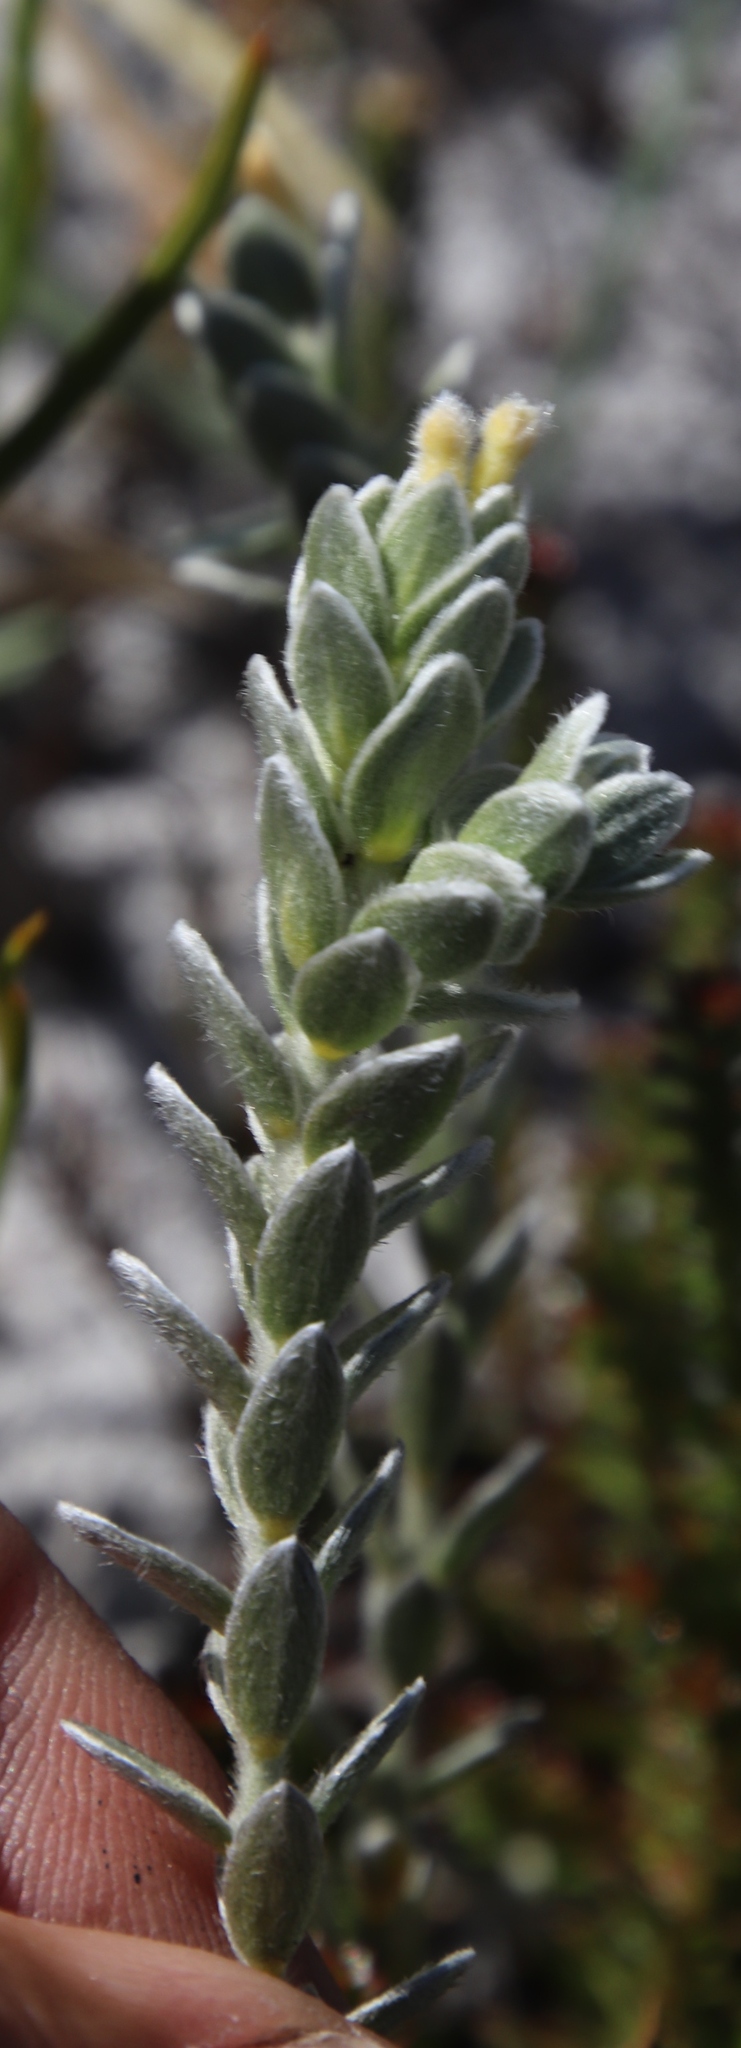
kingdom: Plantae
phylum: Tracheophyta
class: Magnoliopsida
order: Malvales
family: Thymelaeaceae
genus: Gnidia
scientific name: Gnidia imbricata
